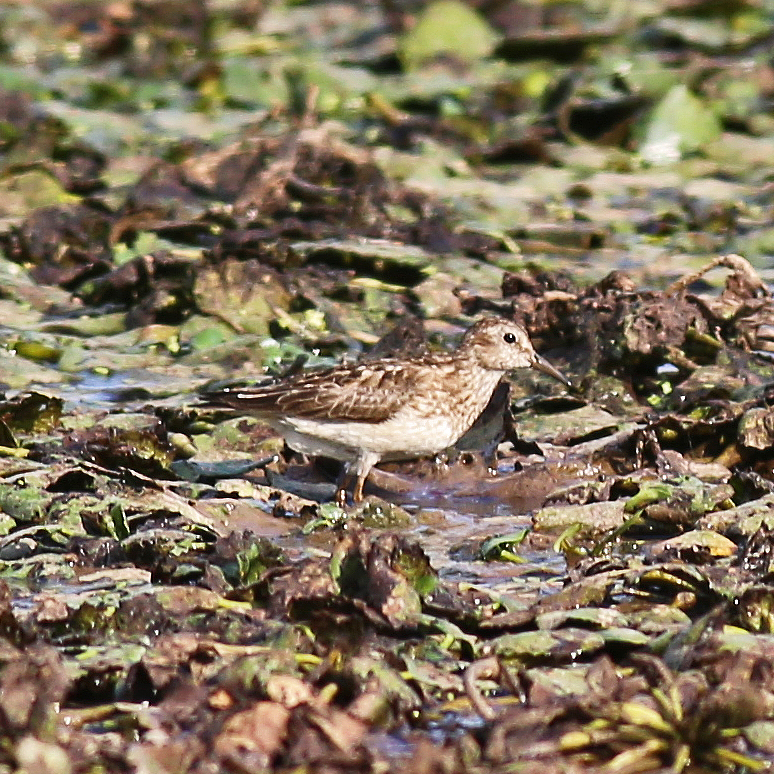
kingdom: Animalia
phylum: Chordata
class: Aves
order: Charadriiformes
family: Scolopacidae
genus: Calidris
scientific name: Calidris minutilla
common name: Least sandpiper
